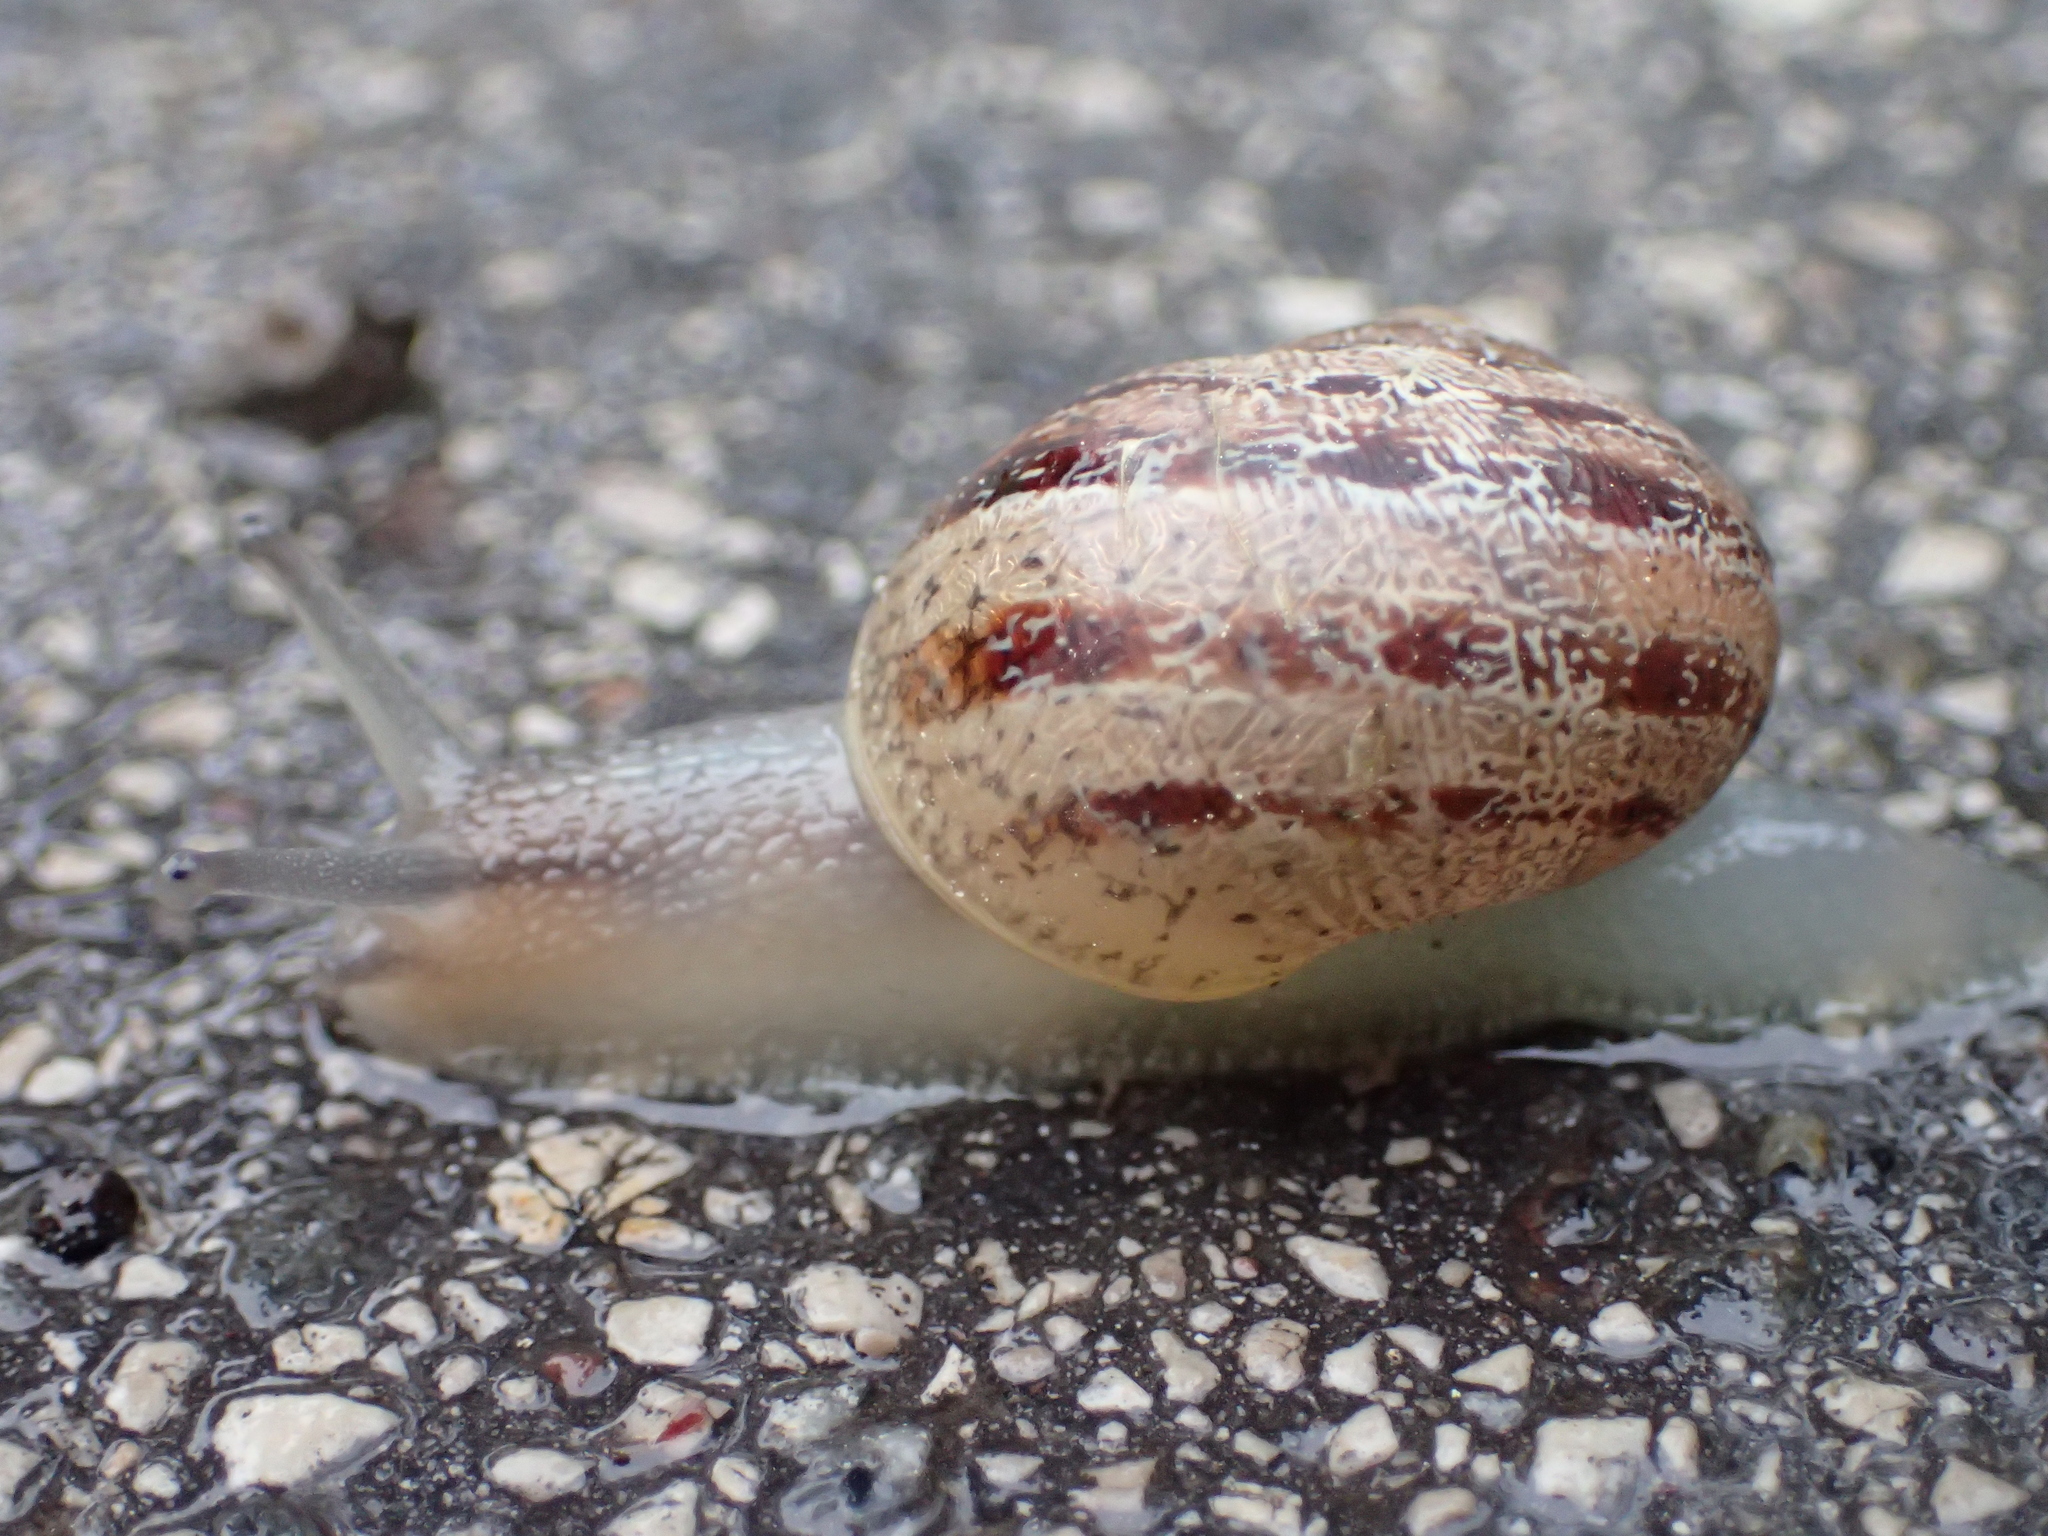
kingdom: Animalia
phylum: Mollusca
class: Gastropoda
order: Stylommatophora
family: Helicidae
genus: Cornu
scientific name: Cornu aspersum
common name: Brown garden snail
